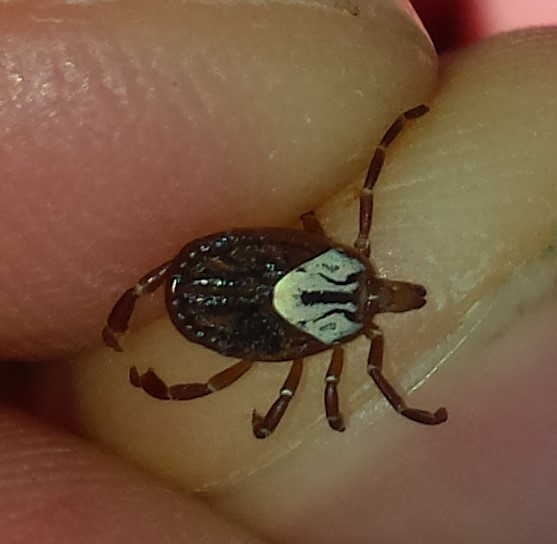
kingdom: Animalia
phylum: Arthropoda
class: Arachnida
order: Ixodida
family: Ixodidae
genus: Amblyomma
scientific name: Amblyomma maculatum
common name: Gulf coast tick
